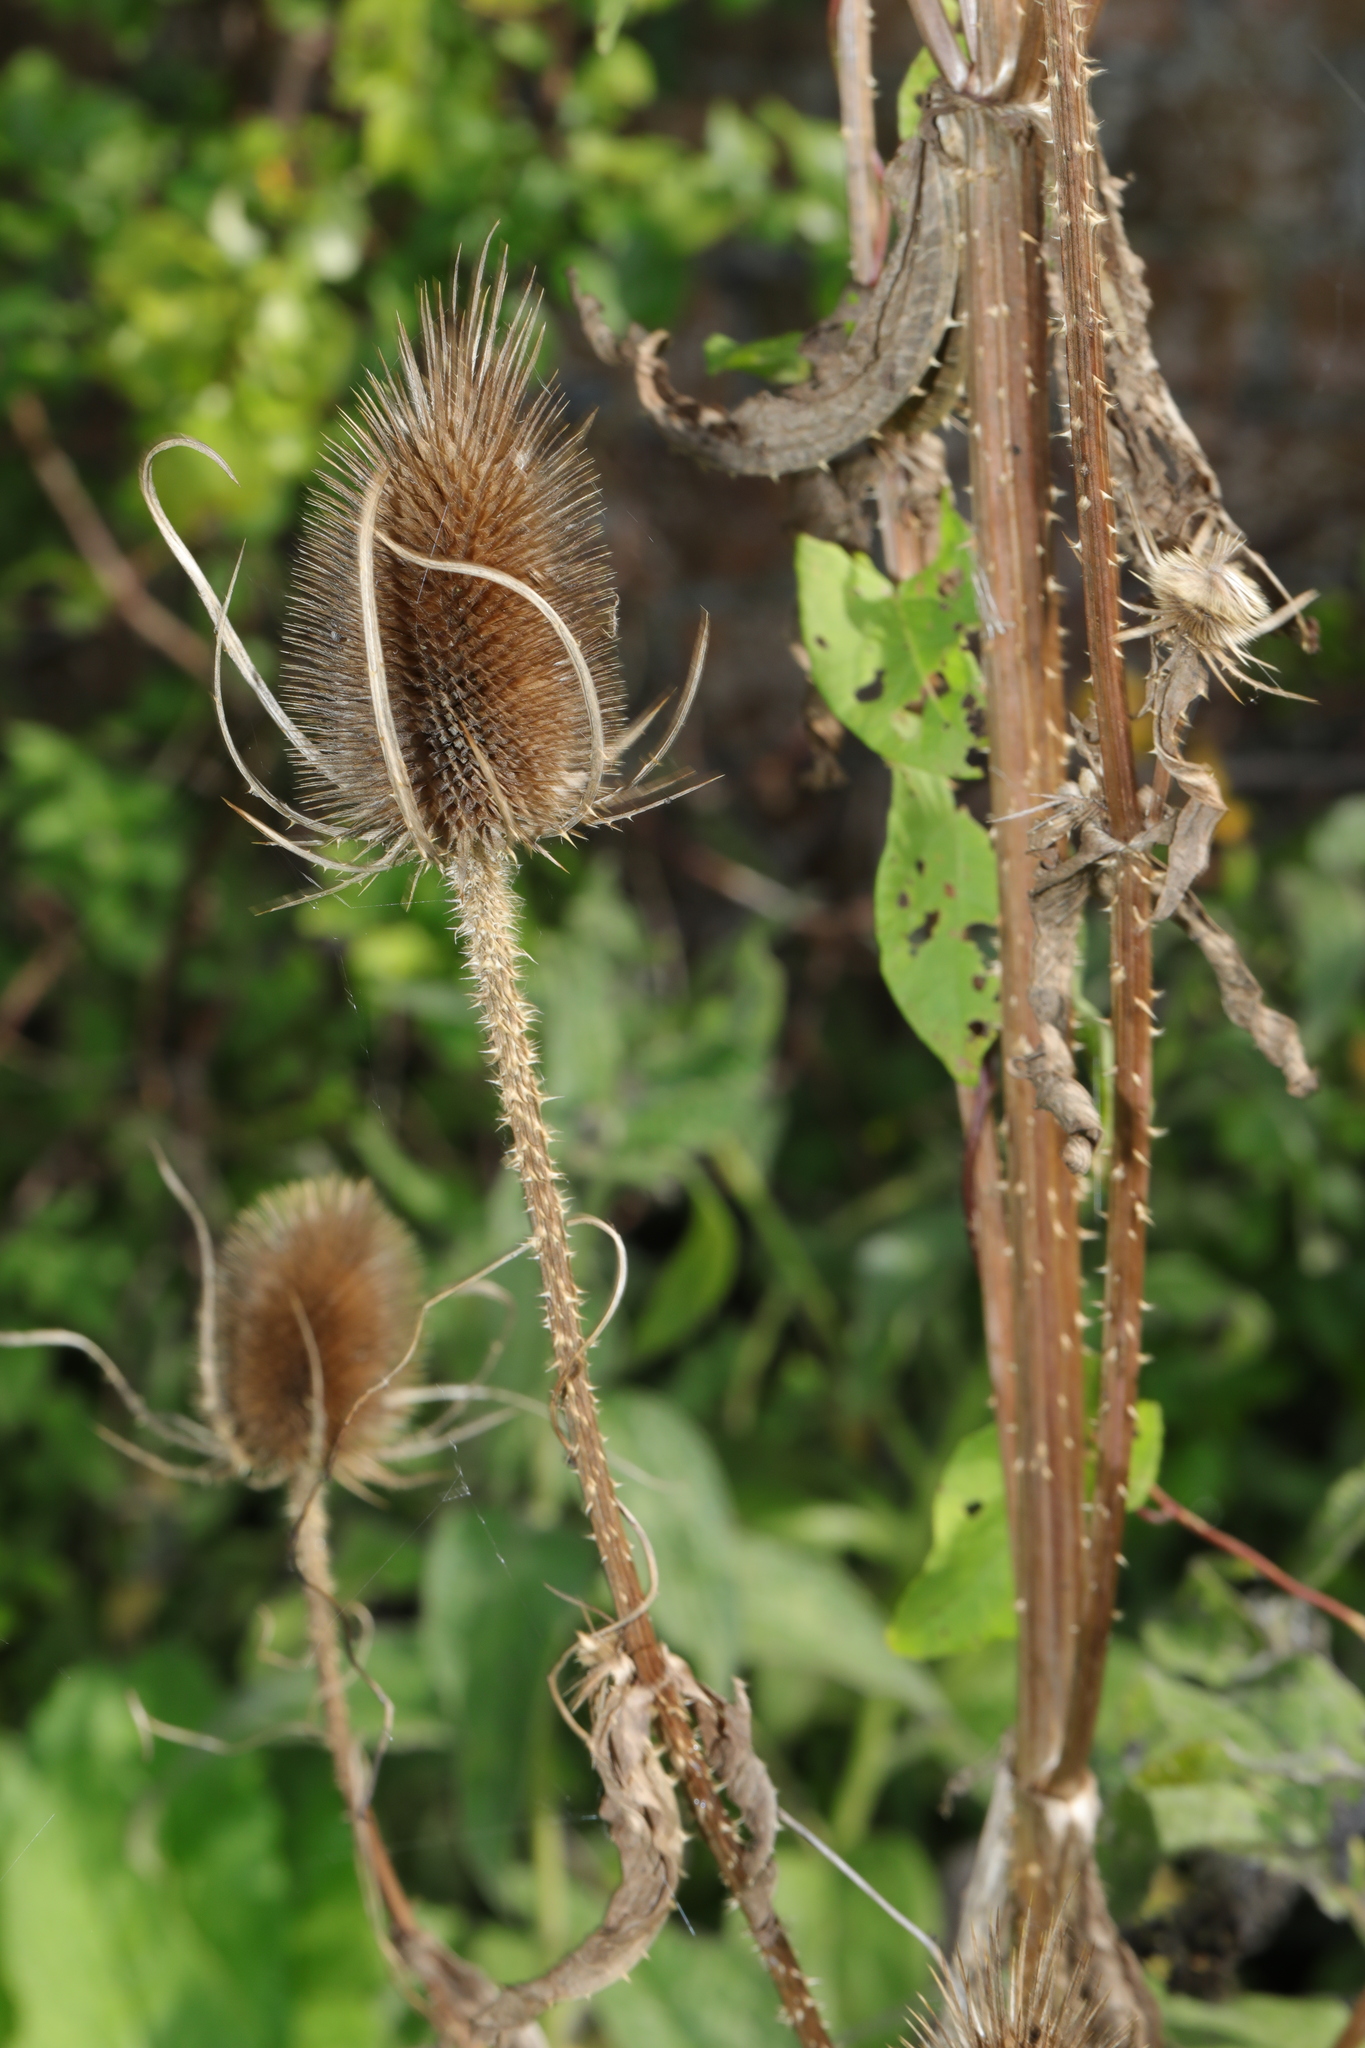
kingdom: Plantae
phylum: Tracheophyta
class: Magnoliopsida
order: Dipsacales
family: Caprifoliaceae
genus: Dipsacus
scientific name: Dipsacus fullonum
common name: Teasel
